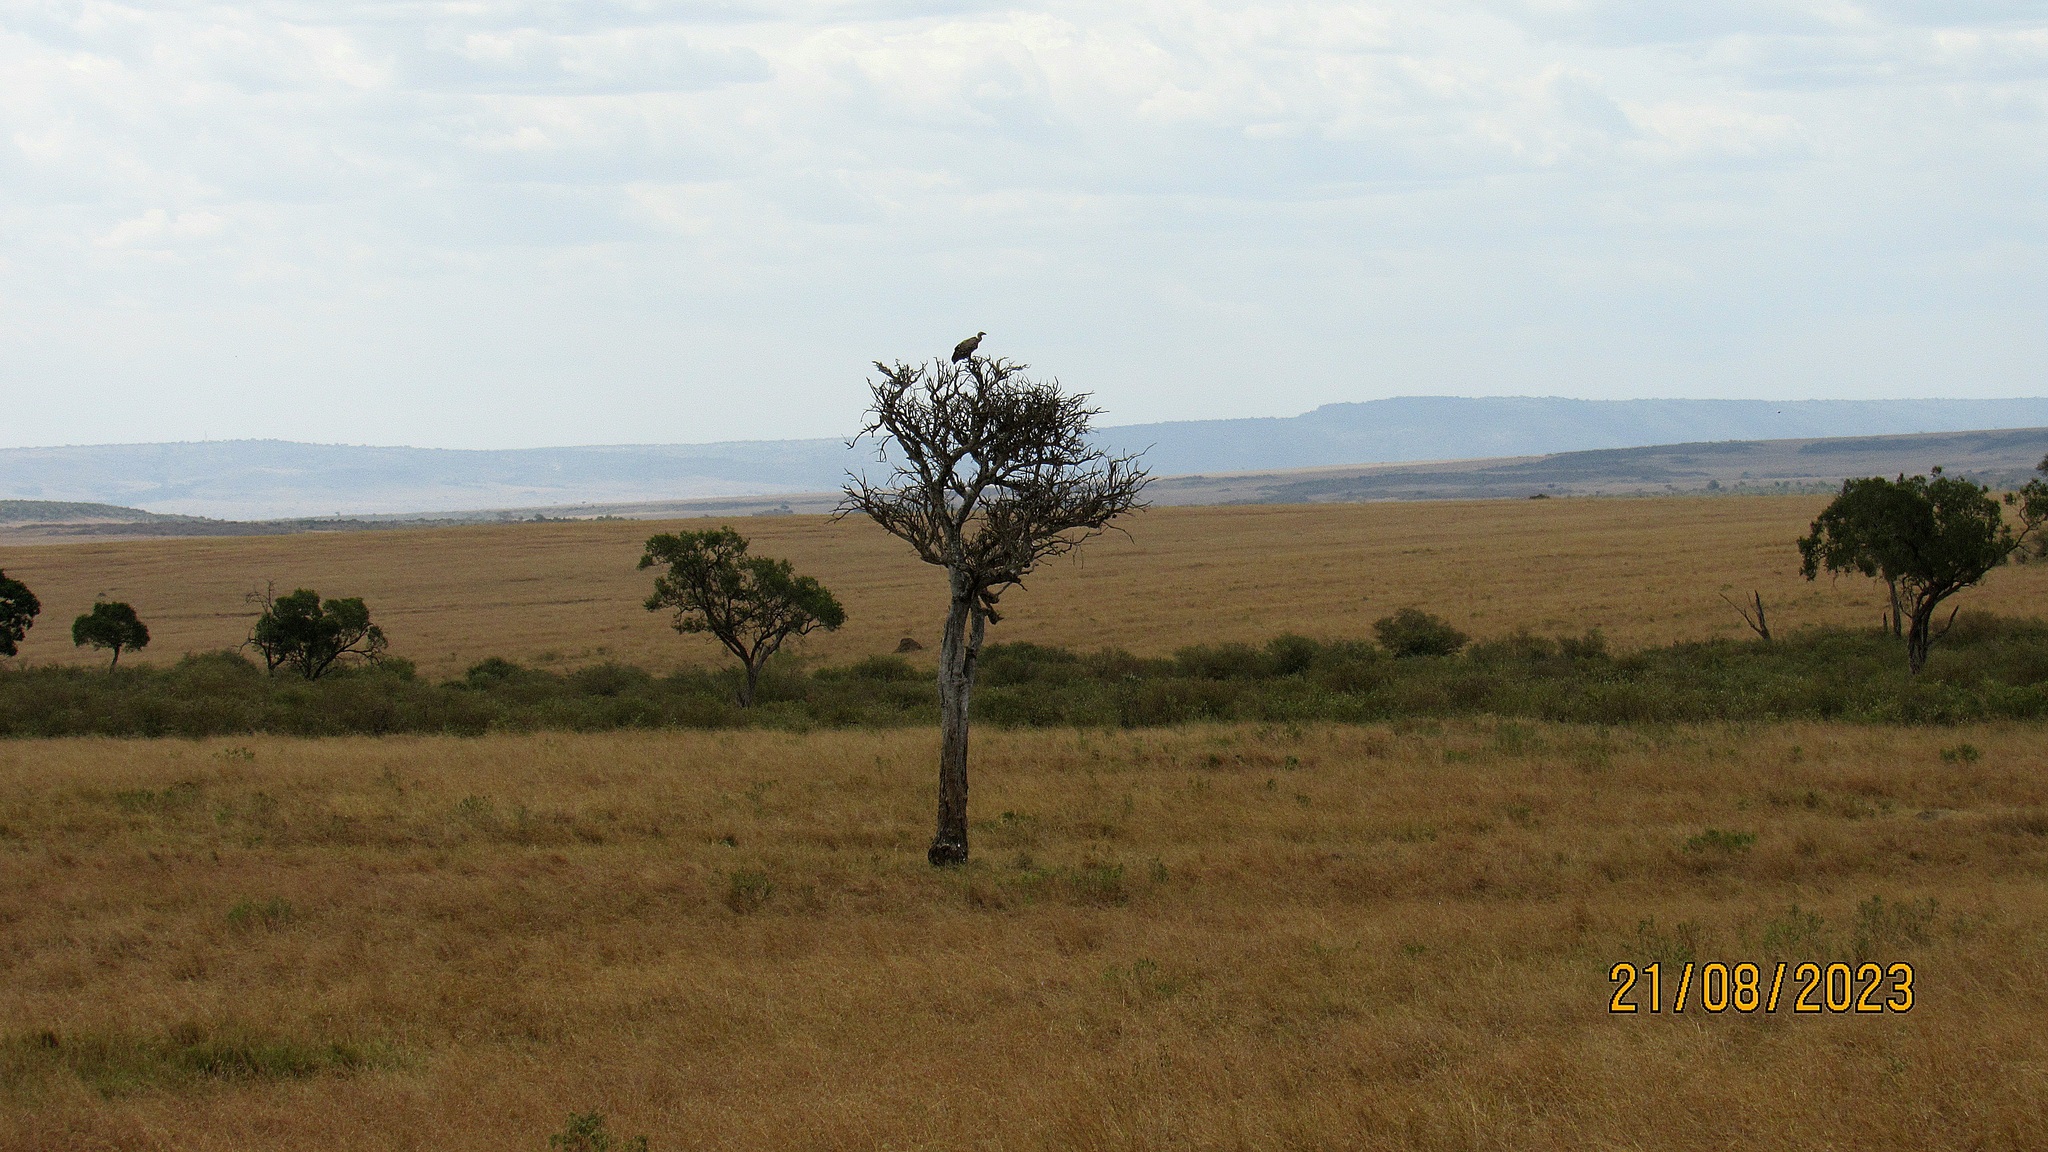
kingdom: Animalia
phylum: Chordata
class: Aves
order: Accipitriformes
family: Accipitridae
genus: Gyps
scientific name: Gyps rueppellii
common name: Rüppell's vulture
